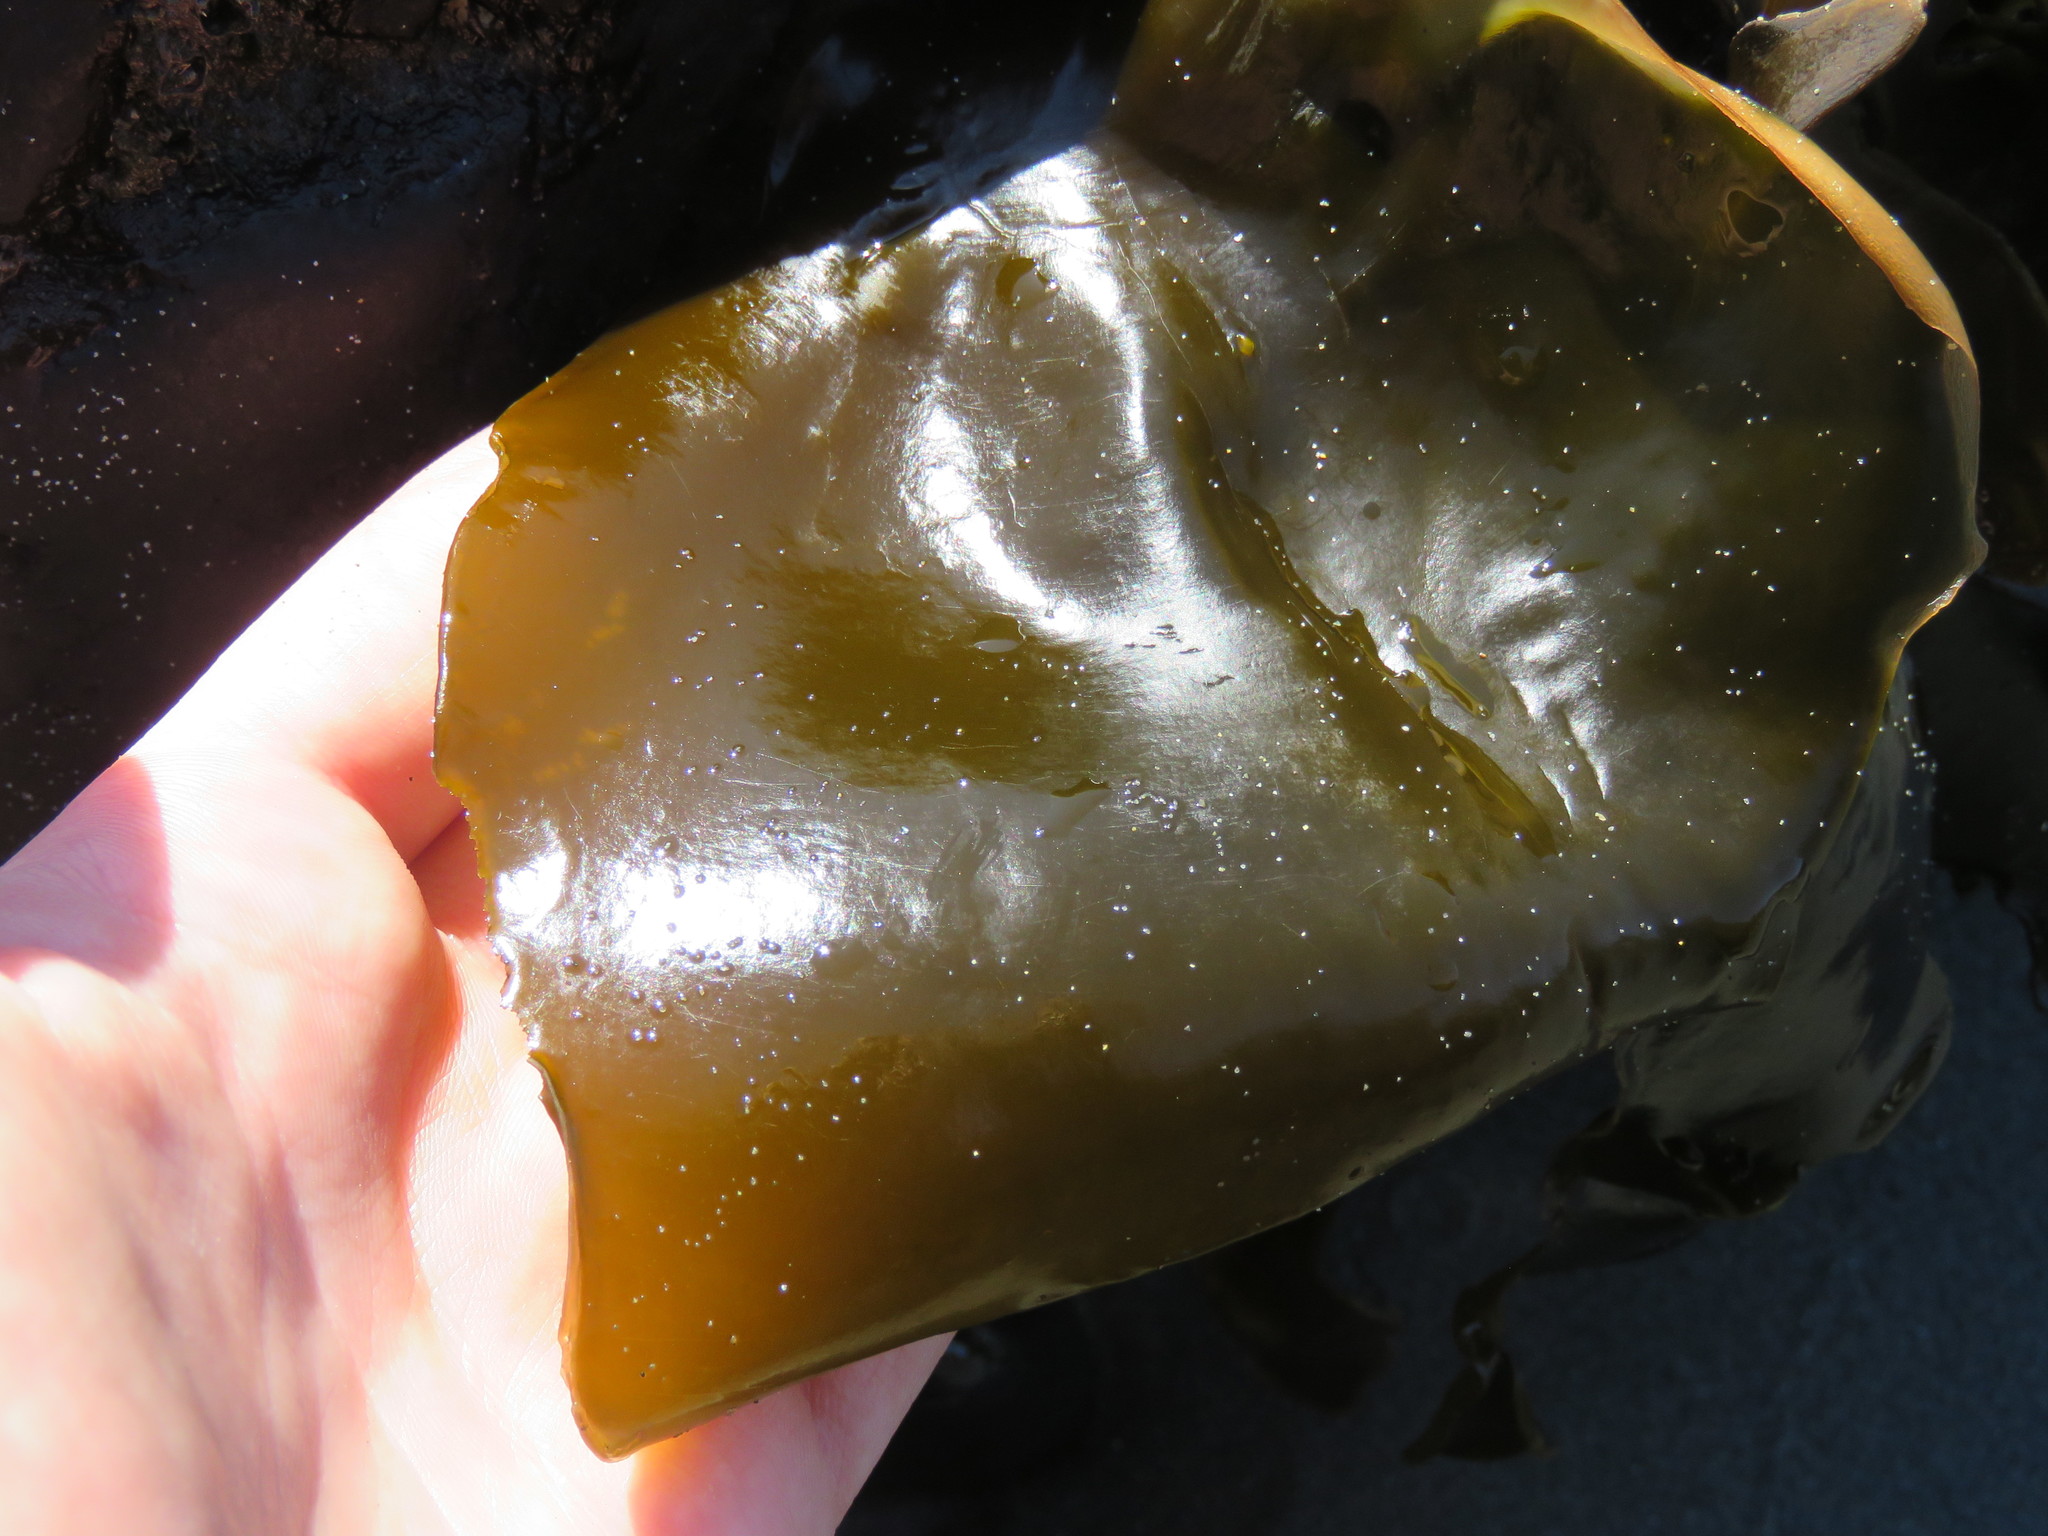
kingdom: Chromista
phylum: Ochrophyta
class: Phaeophyceae
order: Laminariales
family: Laminariaceae
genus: Hedophyllum
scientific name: Hedophyllum sessile
